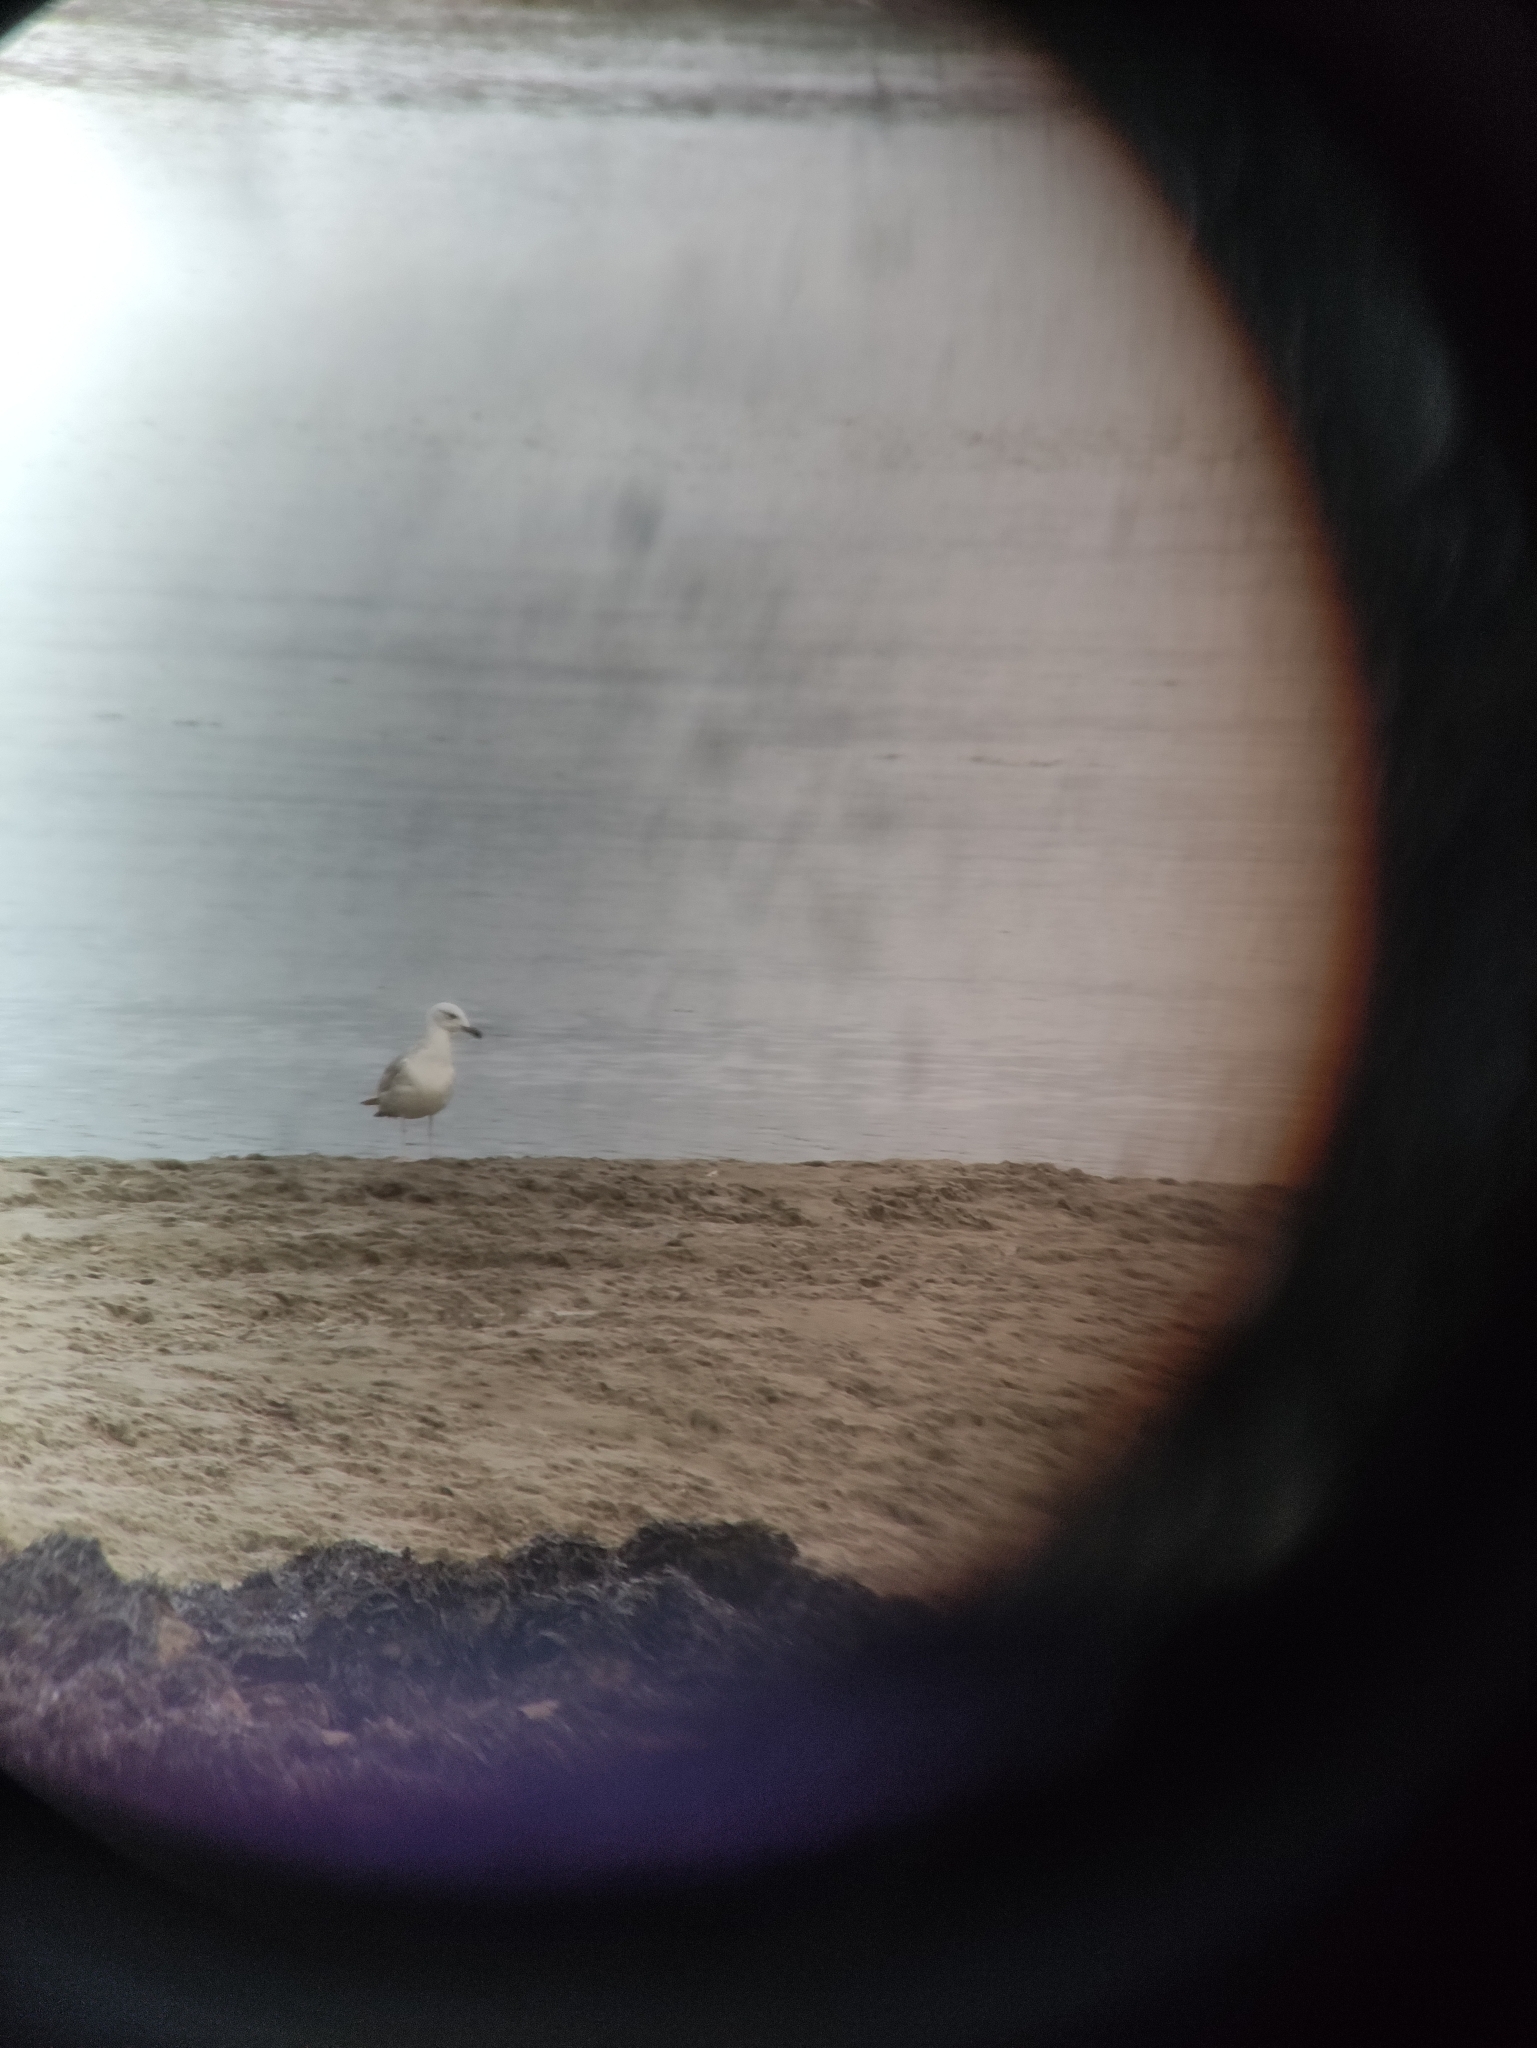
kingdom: Animalia
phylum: Chordata
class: Aves
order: Charadriiformes
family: Laridae
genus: Larus
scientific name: Larus cachinnans
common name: Caspian gull
